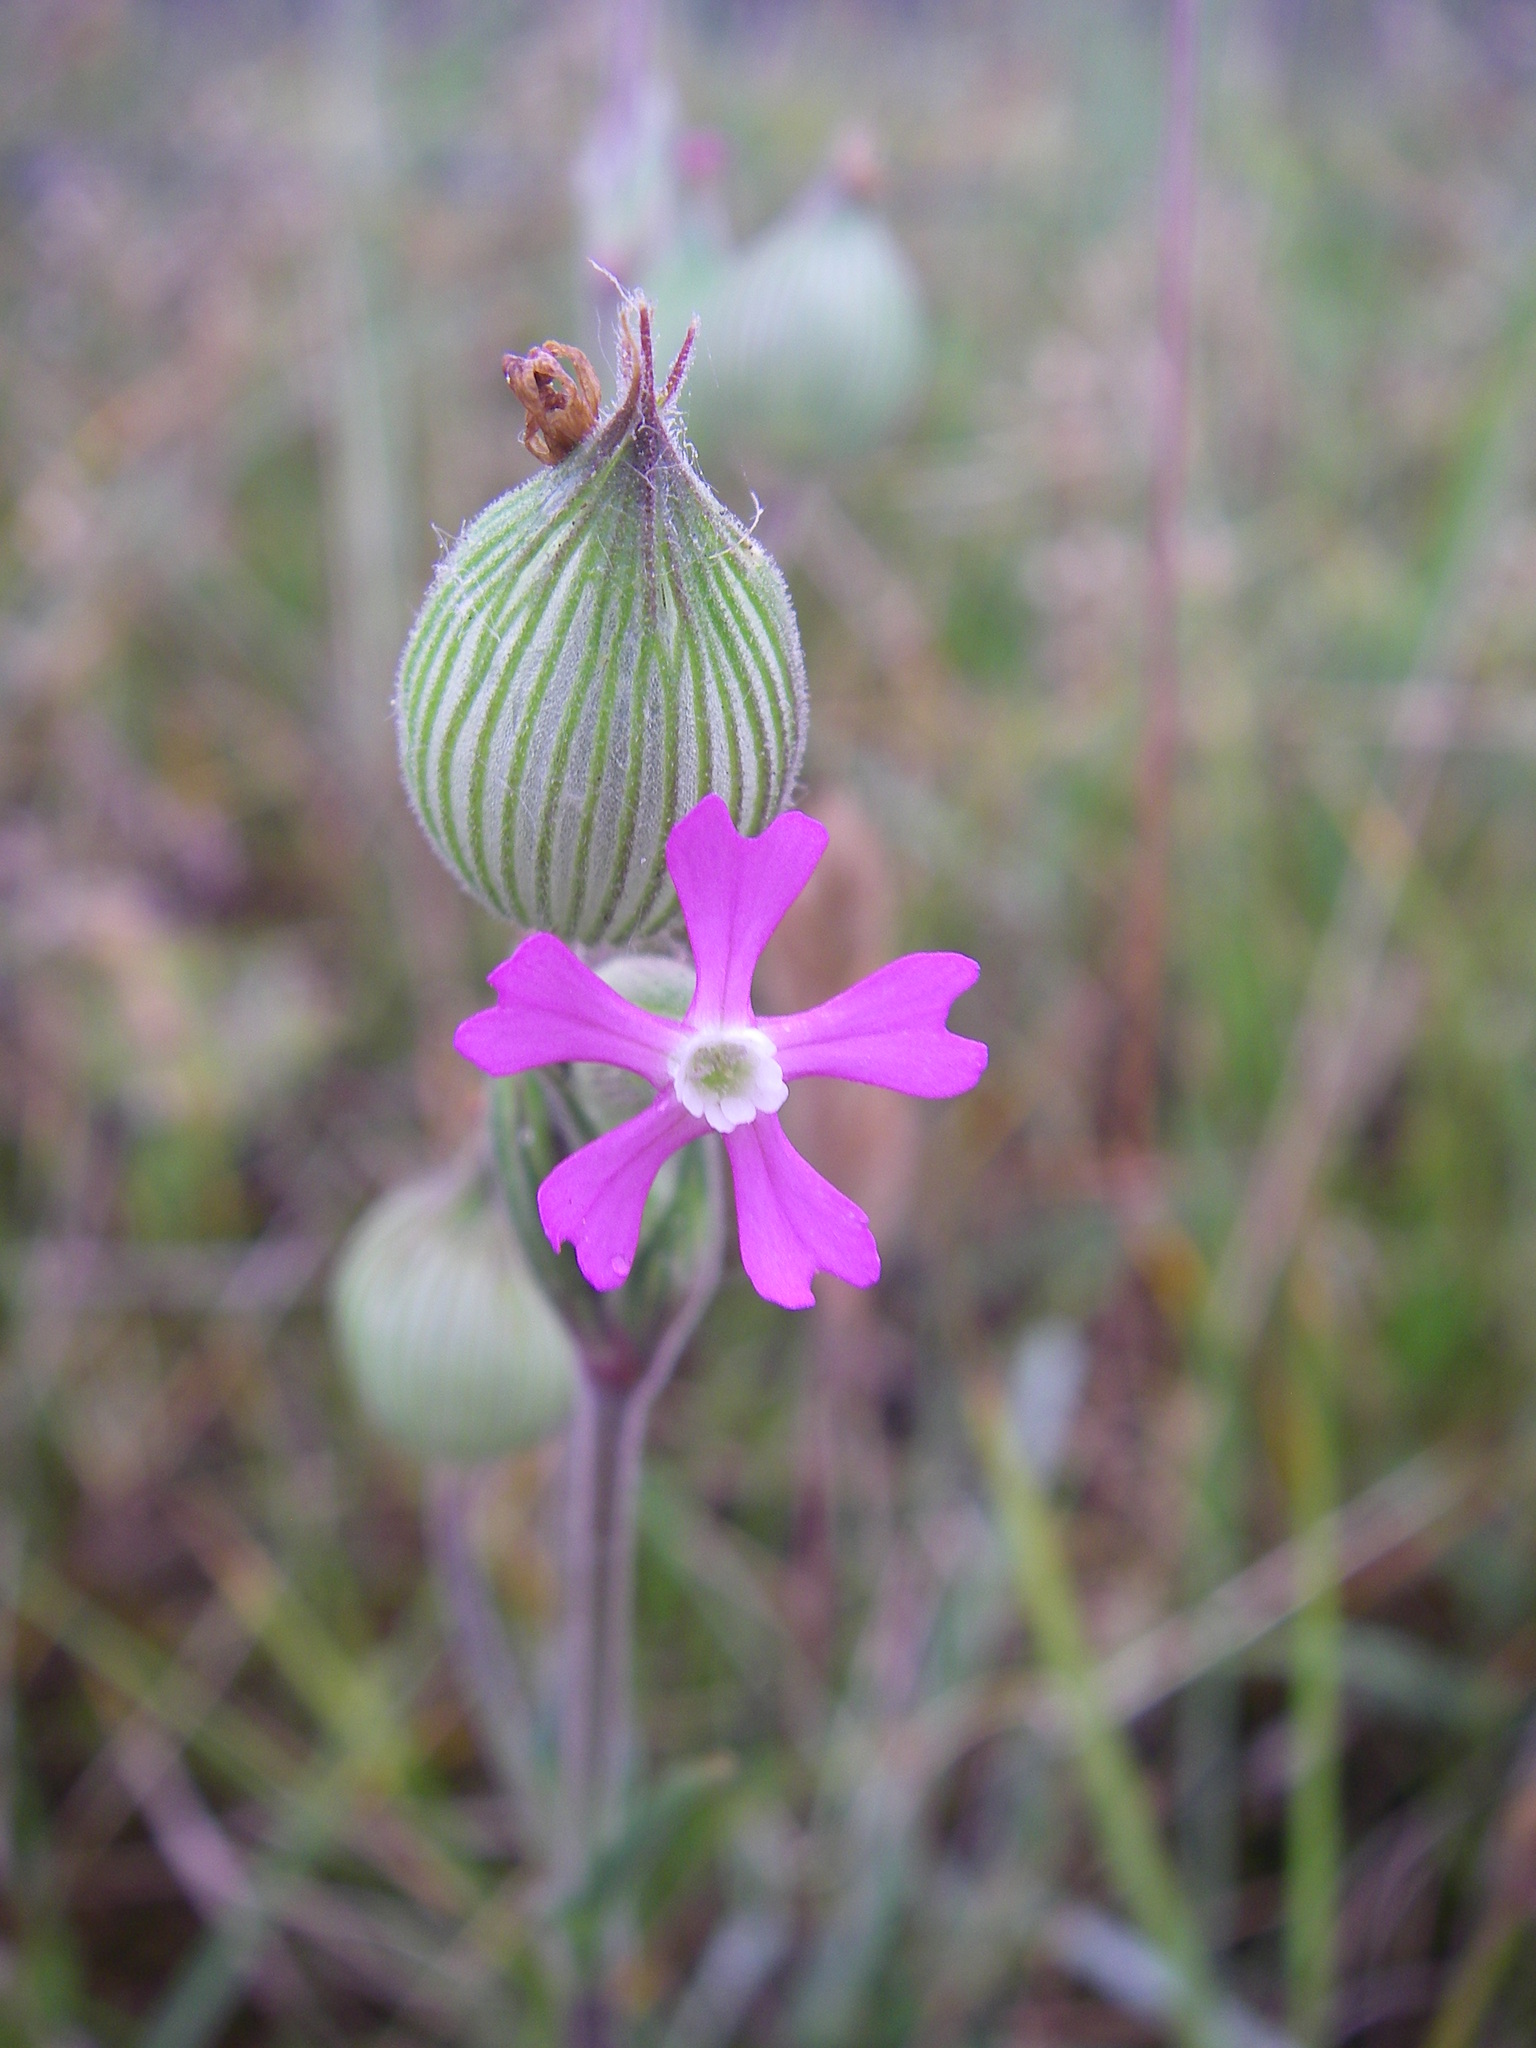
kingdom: Plantae
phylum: Tracheophyta
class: Magnoliopsida
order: Caryophyllales
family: Caryophyllaceae
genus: Silene
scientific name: Silene conica
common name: Sand catchfly
